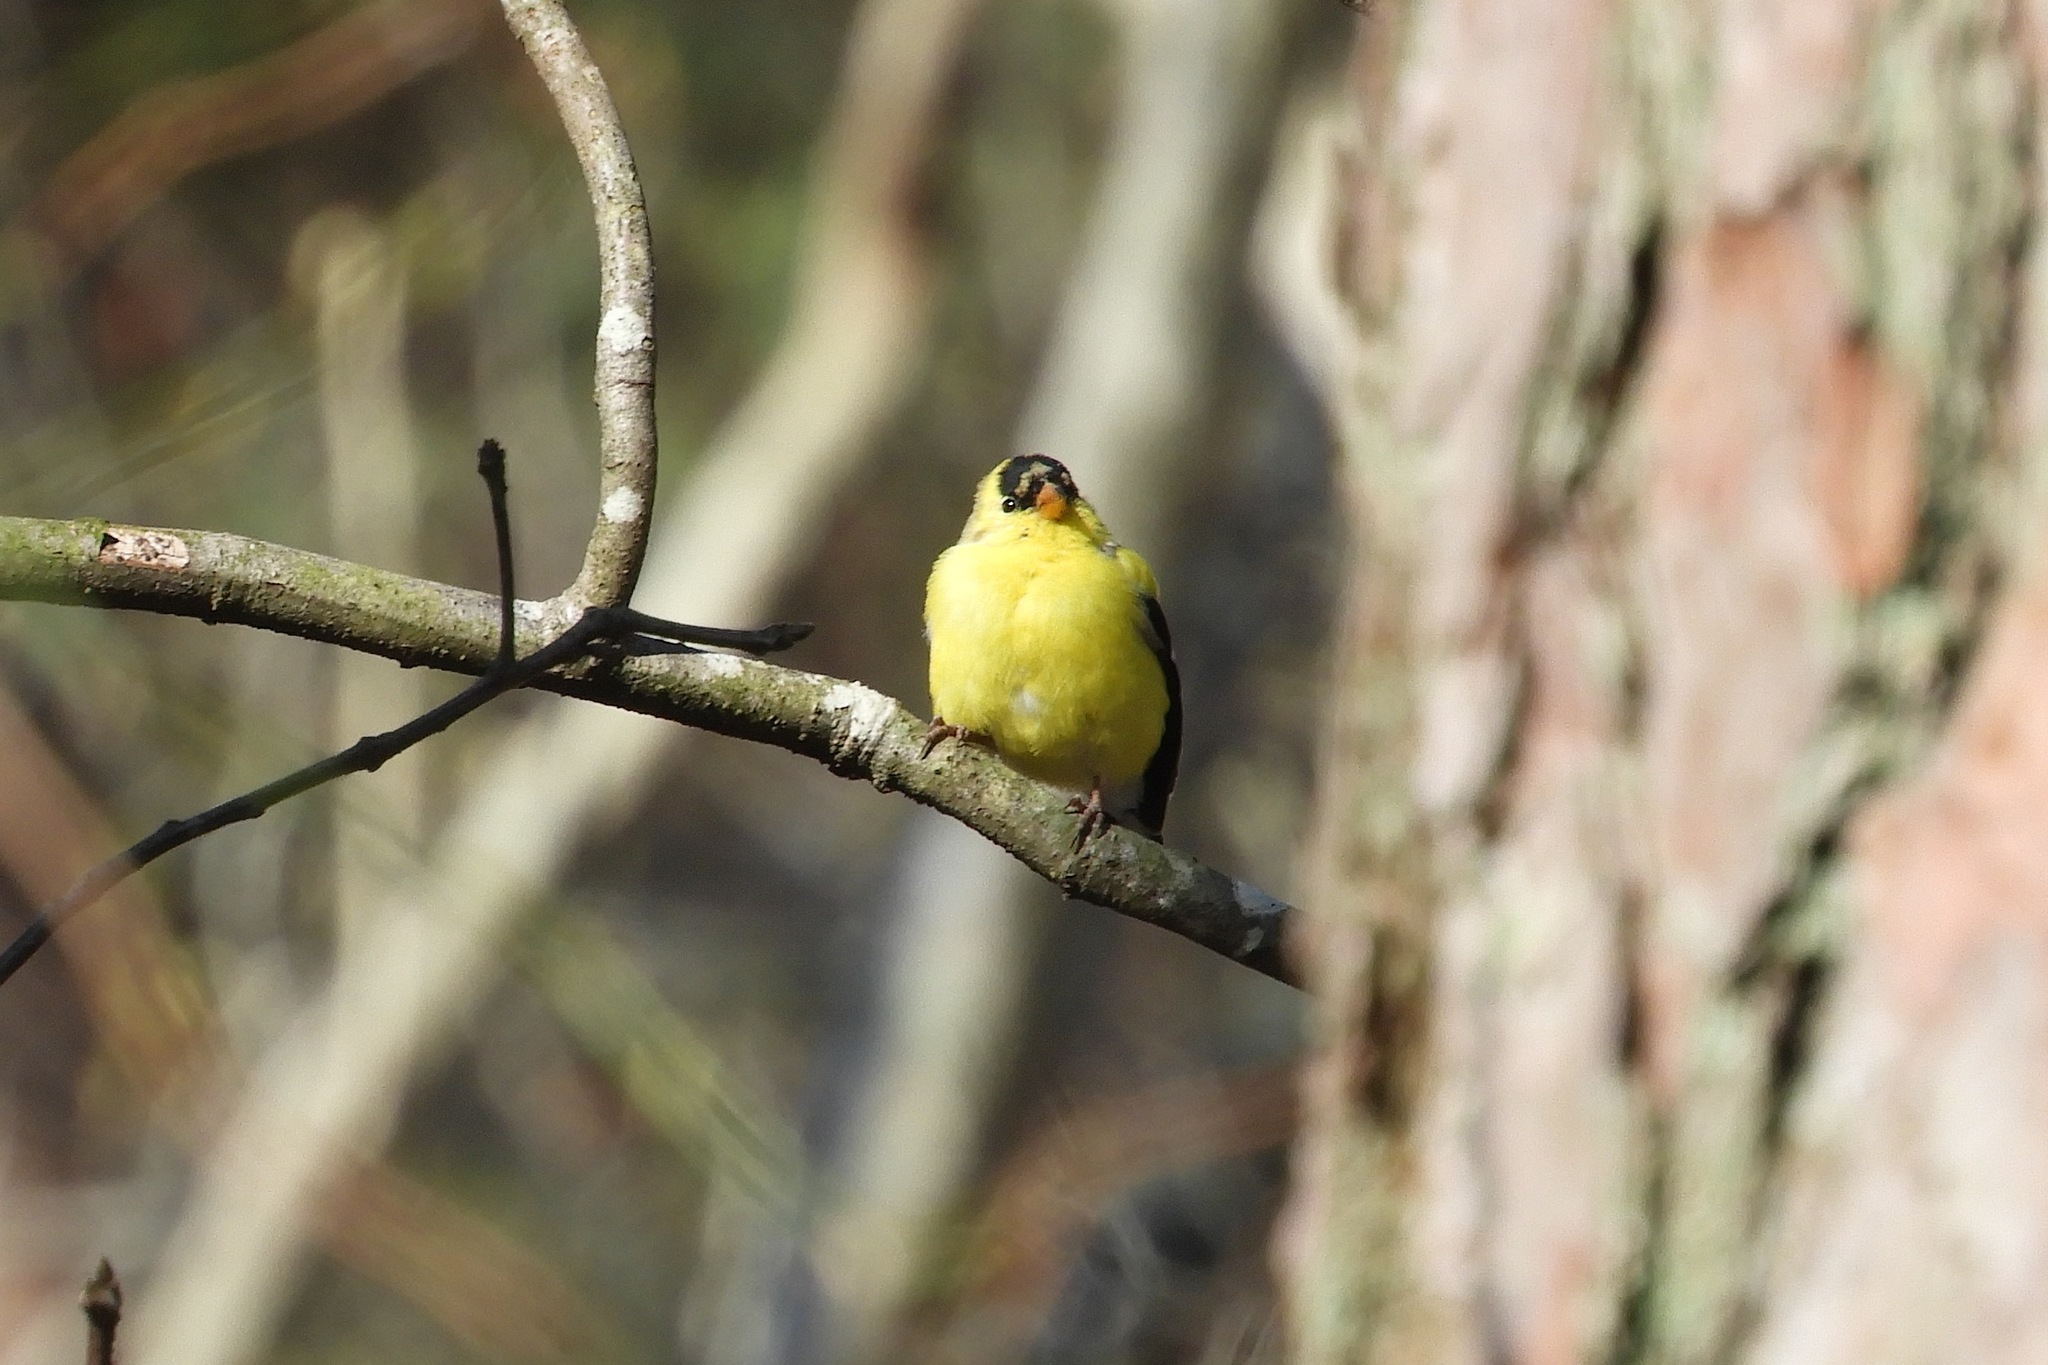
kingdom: Animalia
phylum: Chordata
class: Aves
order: Passeriformes
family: Fringillidae
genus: Spinus
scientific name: Spinus tristis
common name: American goldfinch
